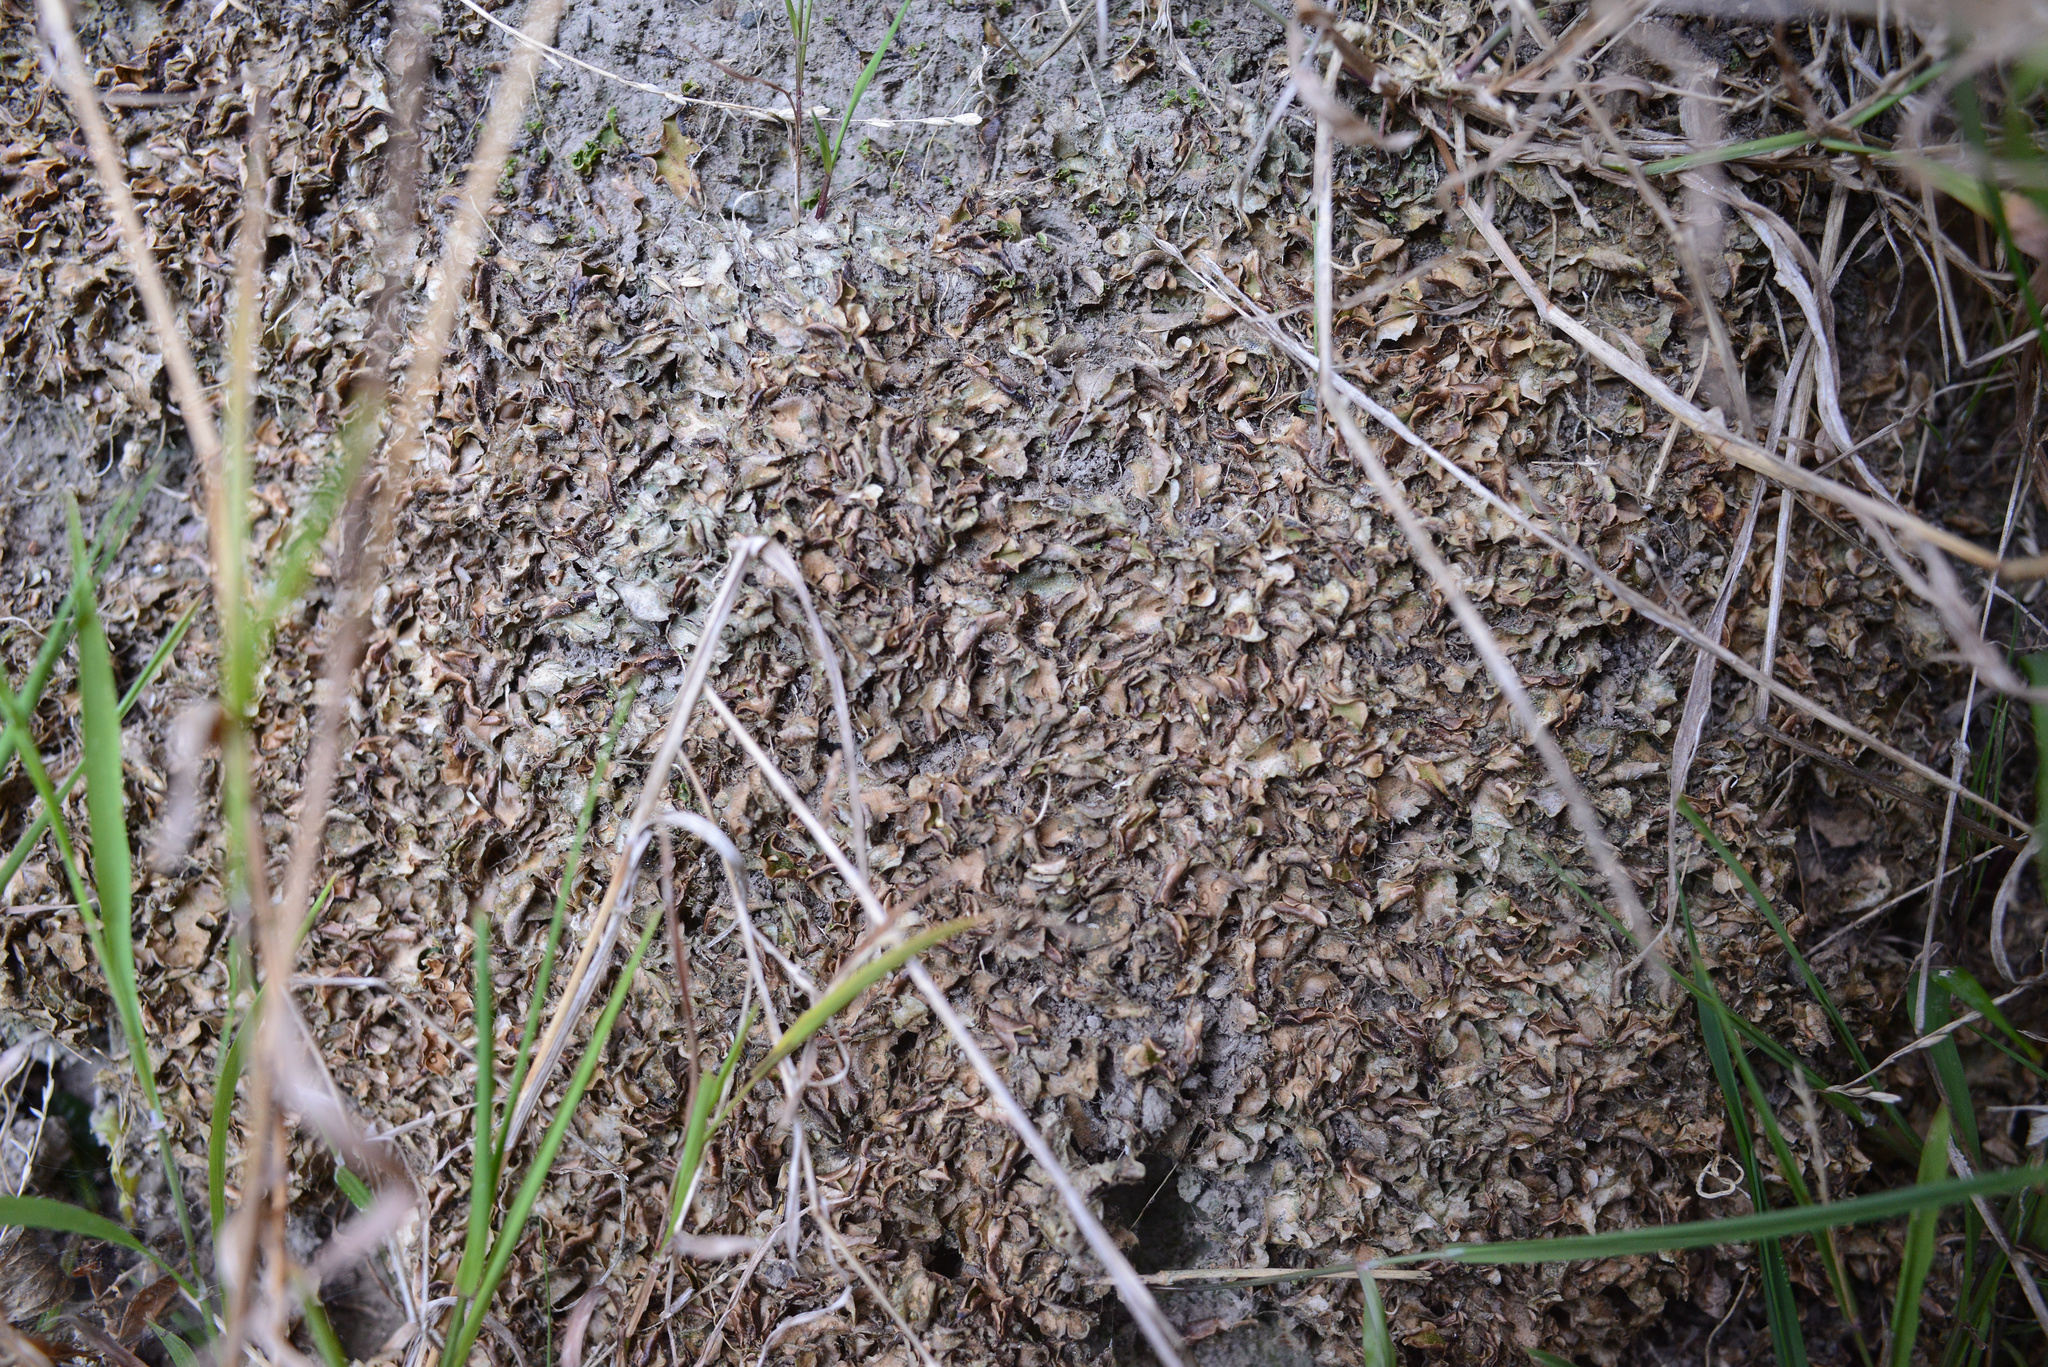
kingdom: Plantae
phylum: Marchantiophyta
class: Marchantiopsida
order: Lunulariales
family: Lunulariaceae
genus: Lunularia
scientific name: Lunularia cruciata
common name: Crescent-cup liverwort
